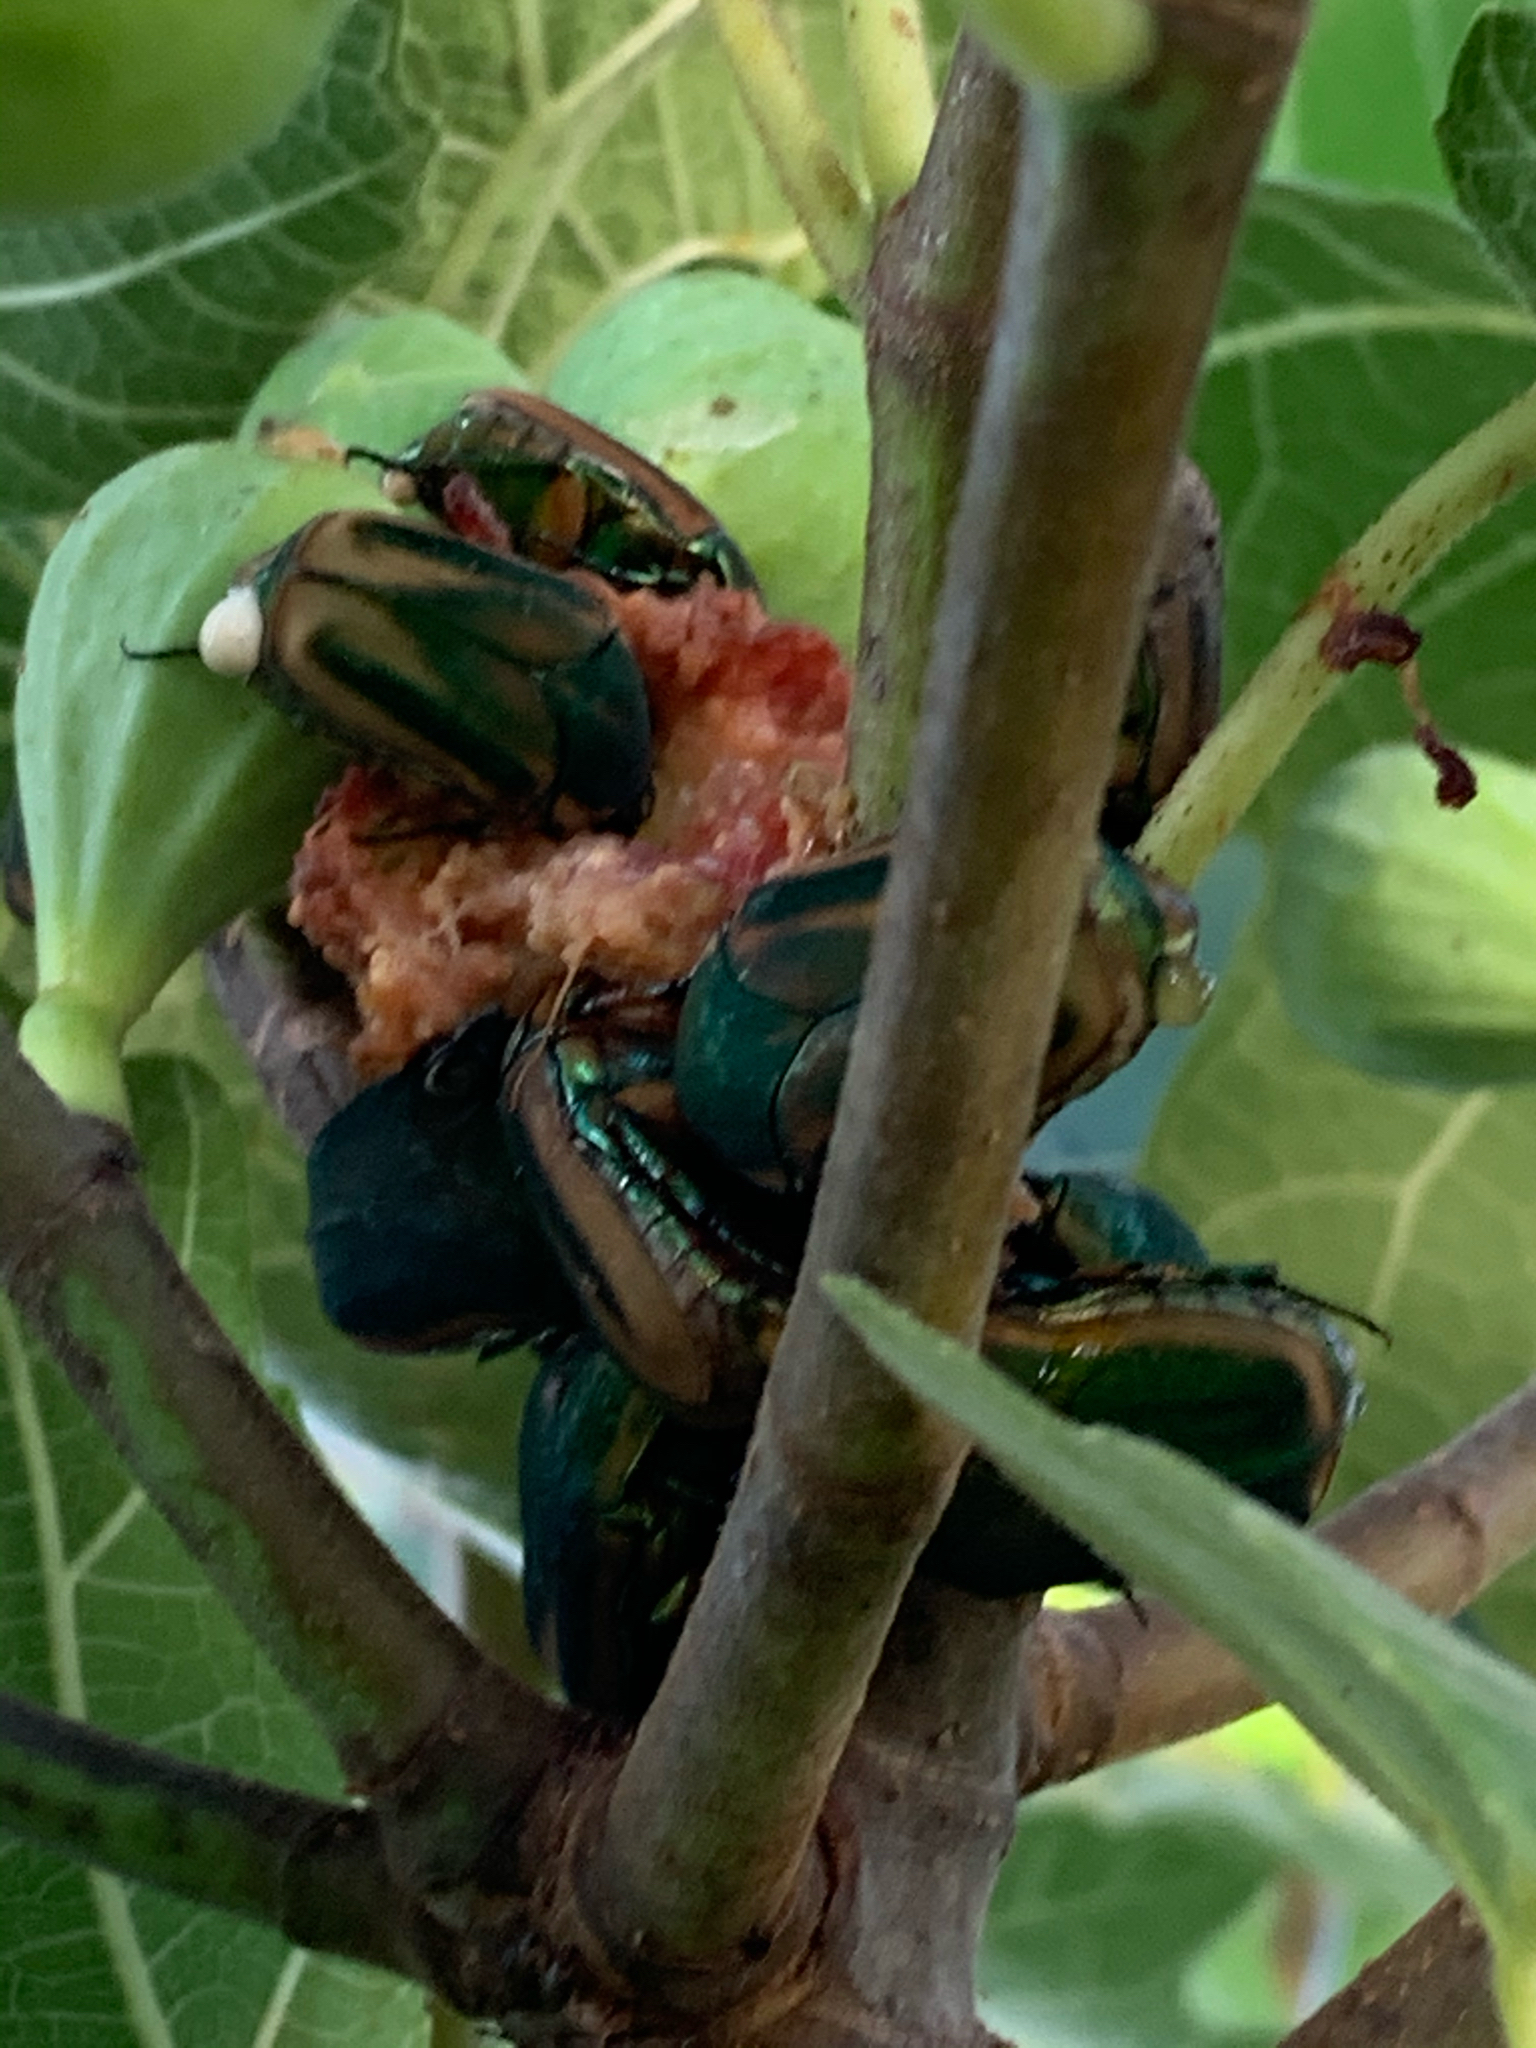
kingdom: Animalia
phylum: Arthropoda
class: Insecta
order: Coleoptera
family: Scarabaeidae
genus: Cotinis
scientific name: Cotinis nitida
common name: Common green june beetle
